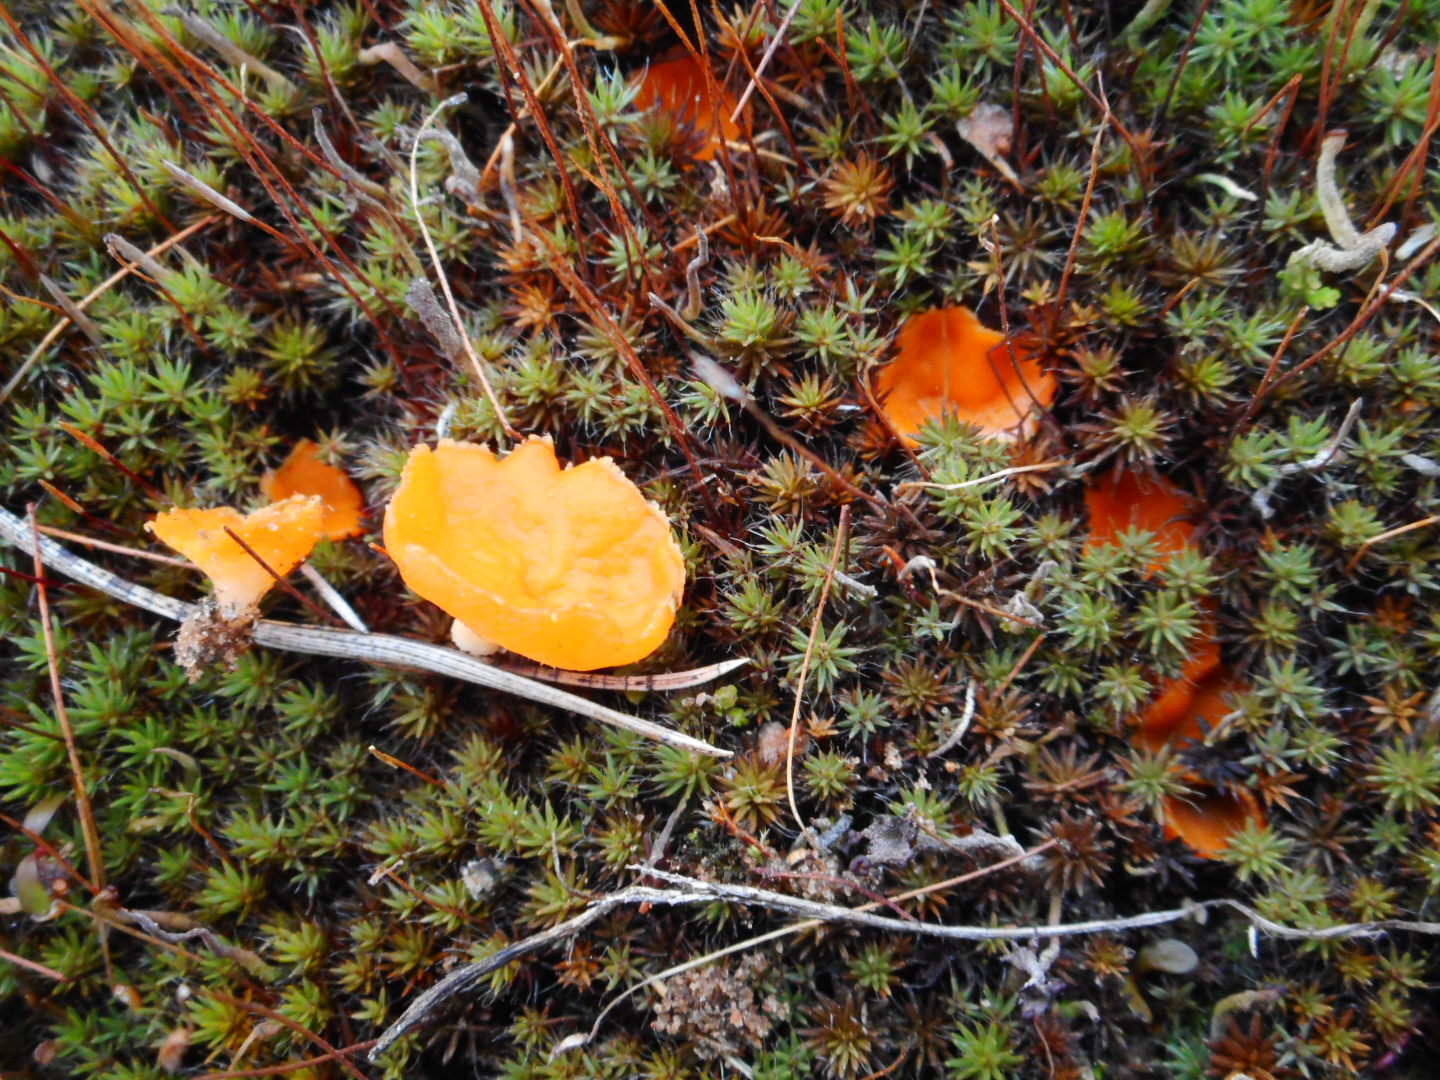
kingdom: Fungi
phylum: Ascomycota
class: Pezizomycetes
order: Pezizales
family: Pyronemataceae
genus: Neottiella
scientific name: Neottiella vivida
